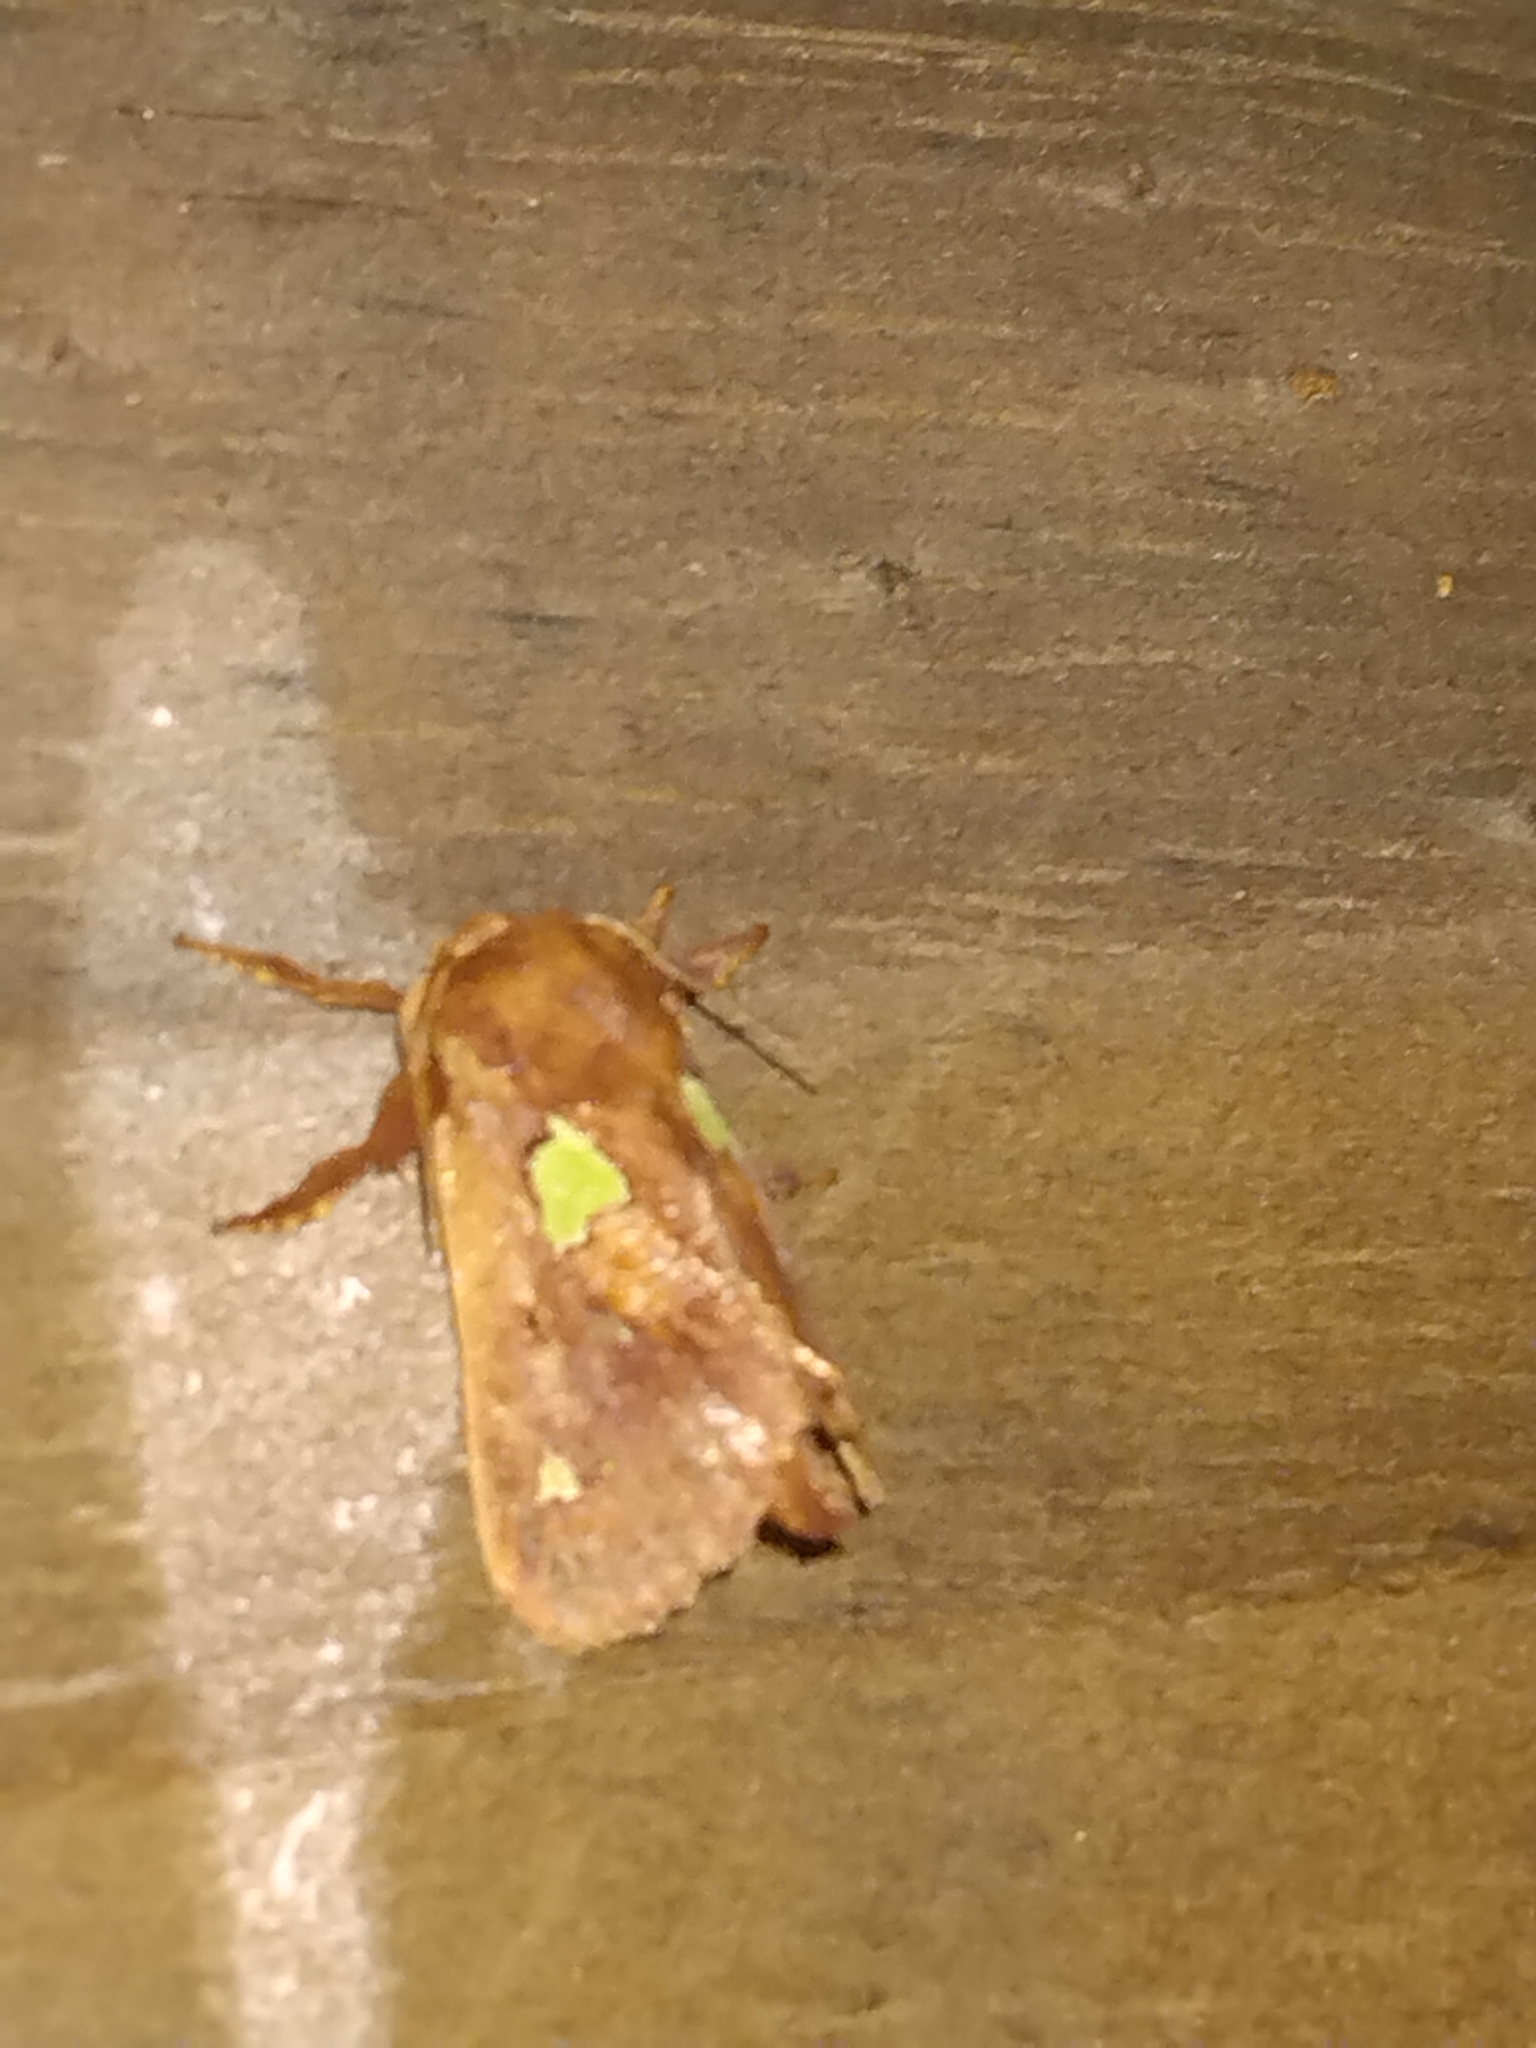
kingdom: Animalia
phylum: Arthropoda
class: Insecta
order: Lepidoptera
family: Limacodidae
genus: Euclea
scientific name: Euclea delphinii
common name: Spiny oak-slug moth
